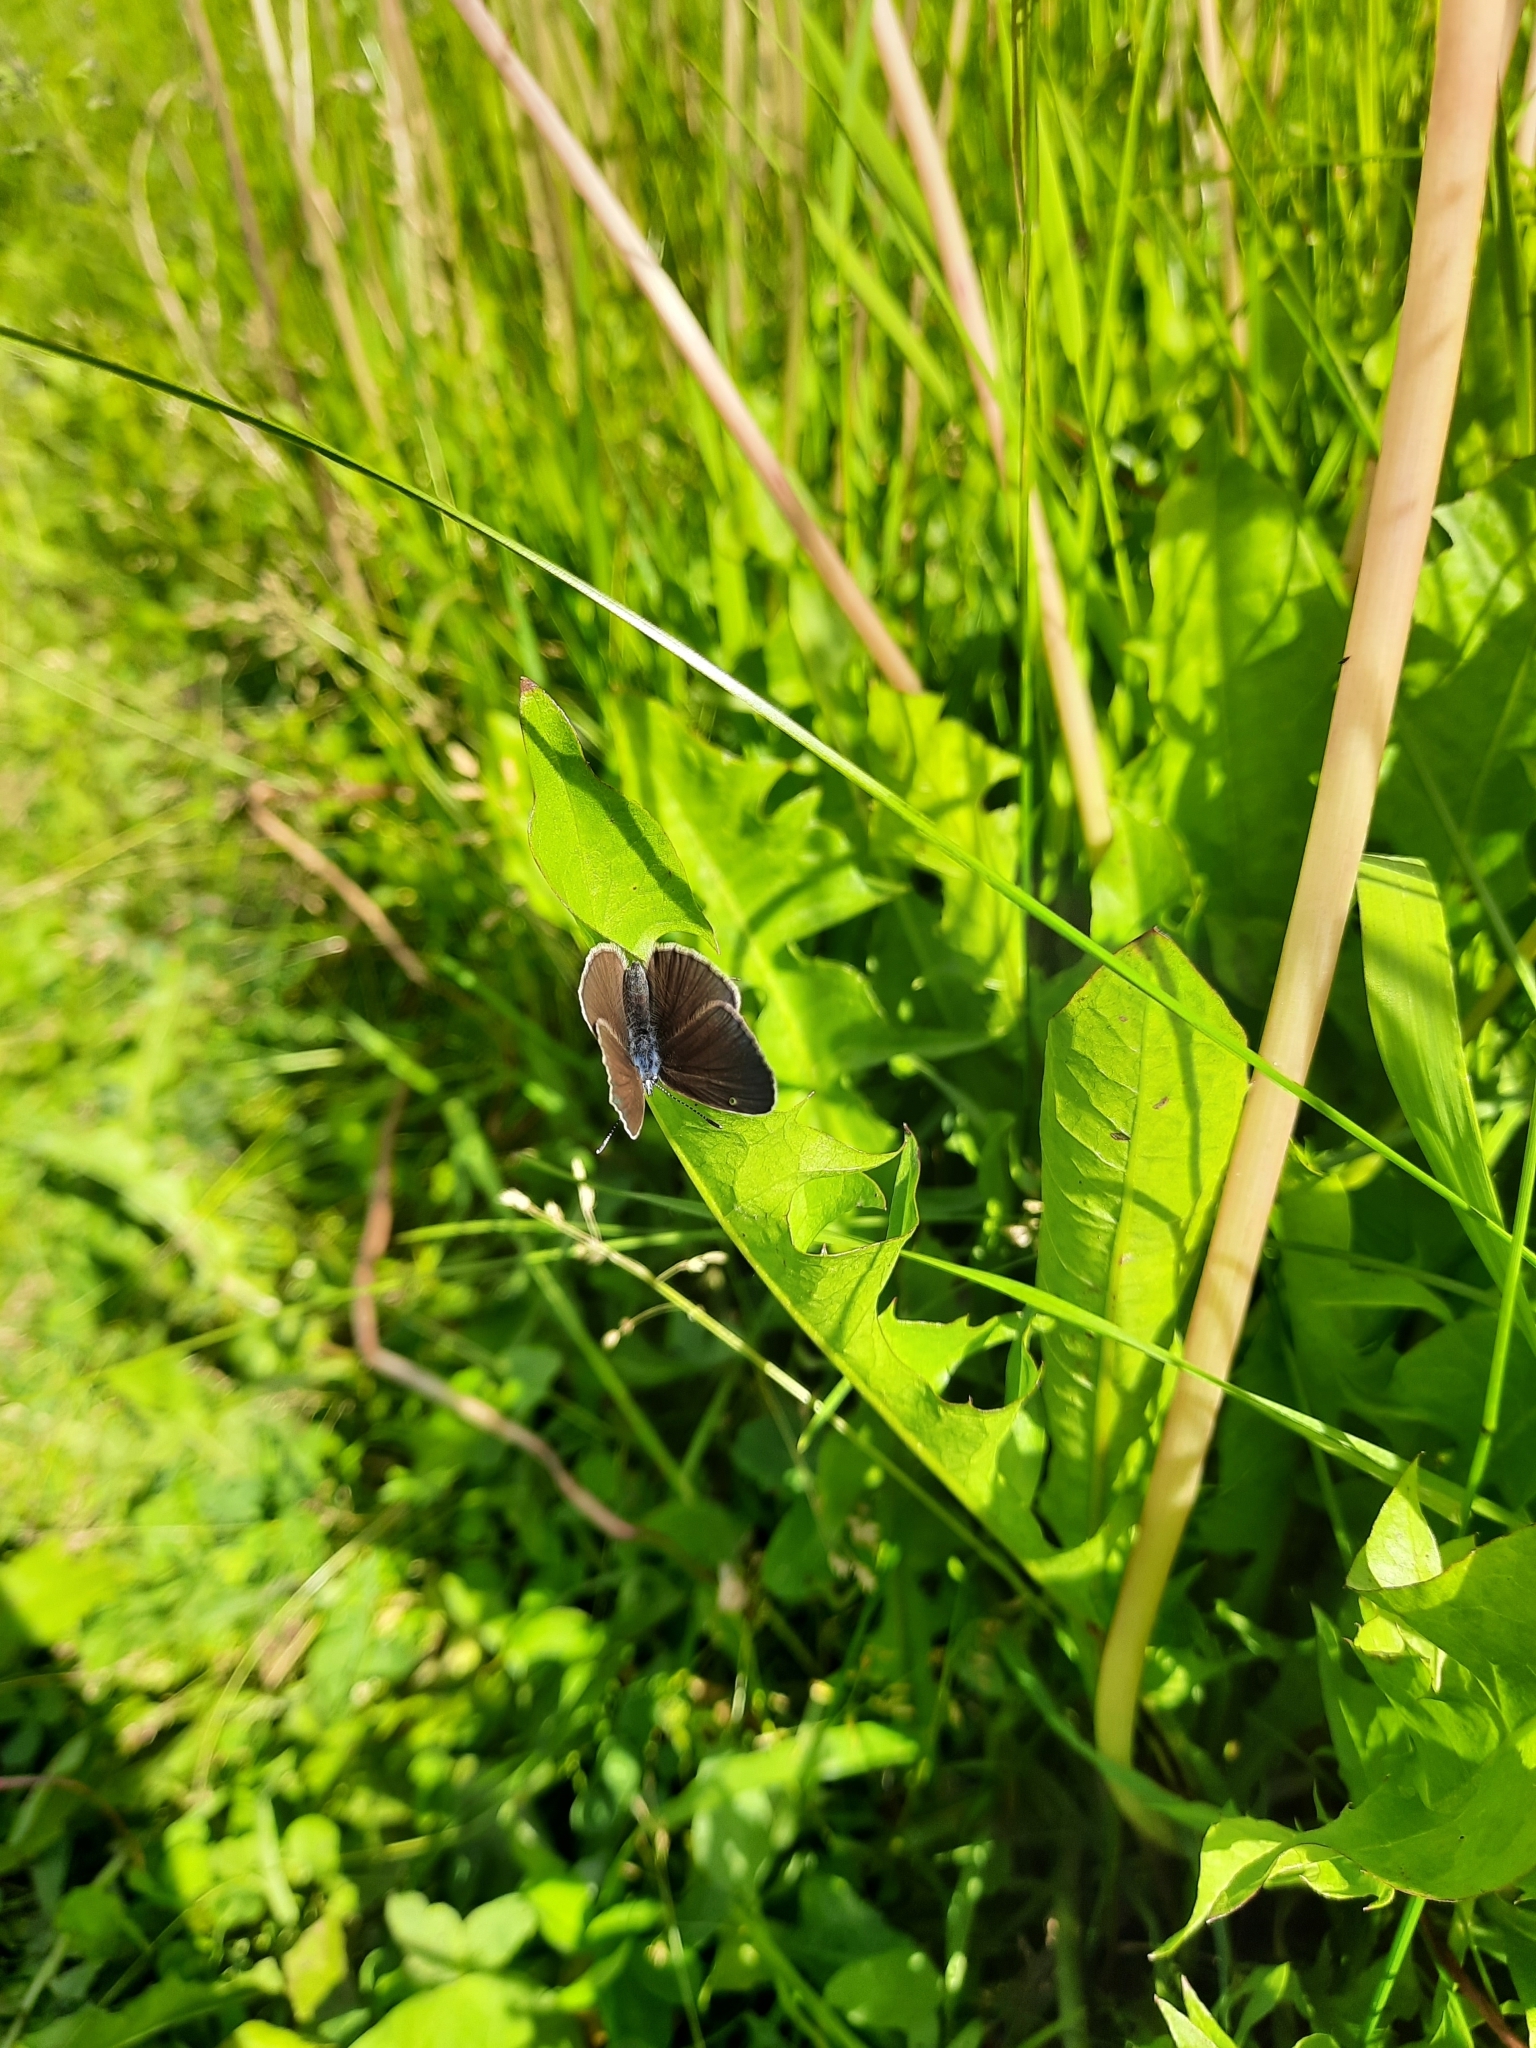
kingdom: Animalia
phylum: Arthropoda
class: Insecta
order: Lepidoptera
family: Lycaenidae
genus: Cyaniris
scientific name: Cyaniris semiargus
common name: Mazarine blue
